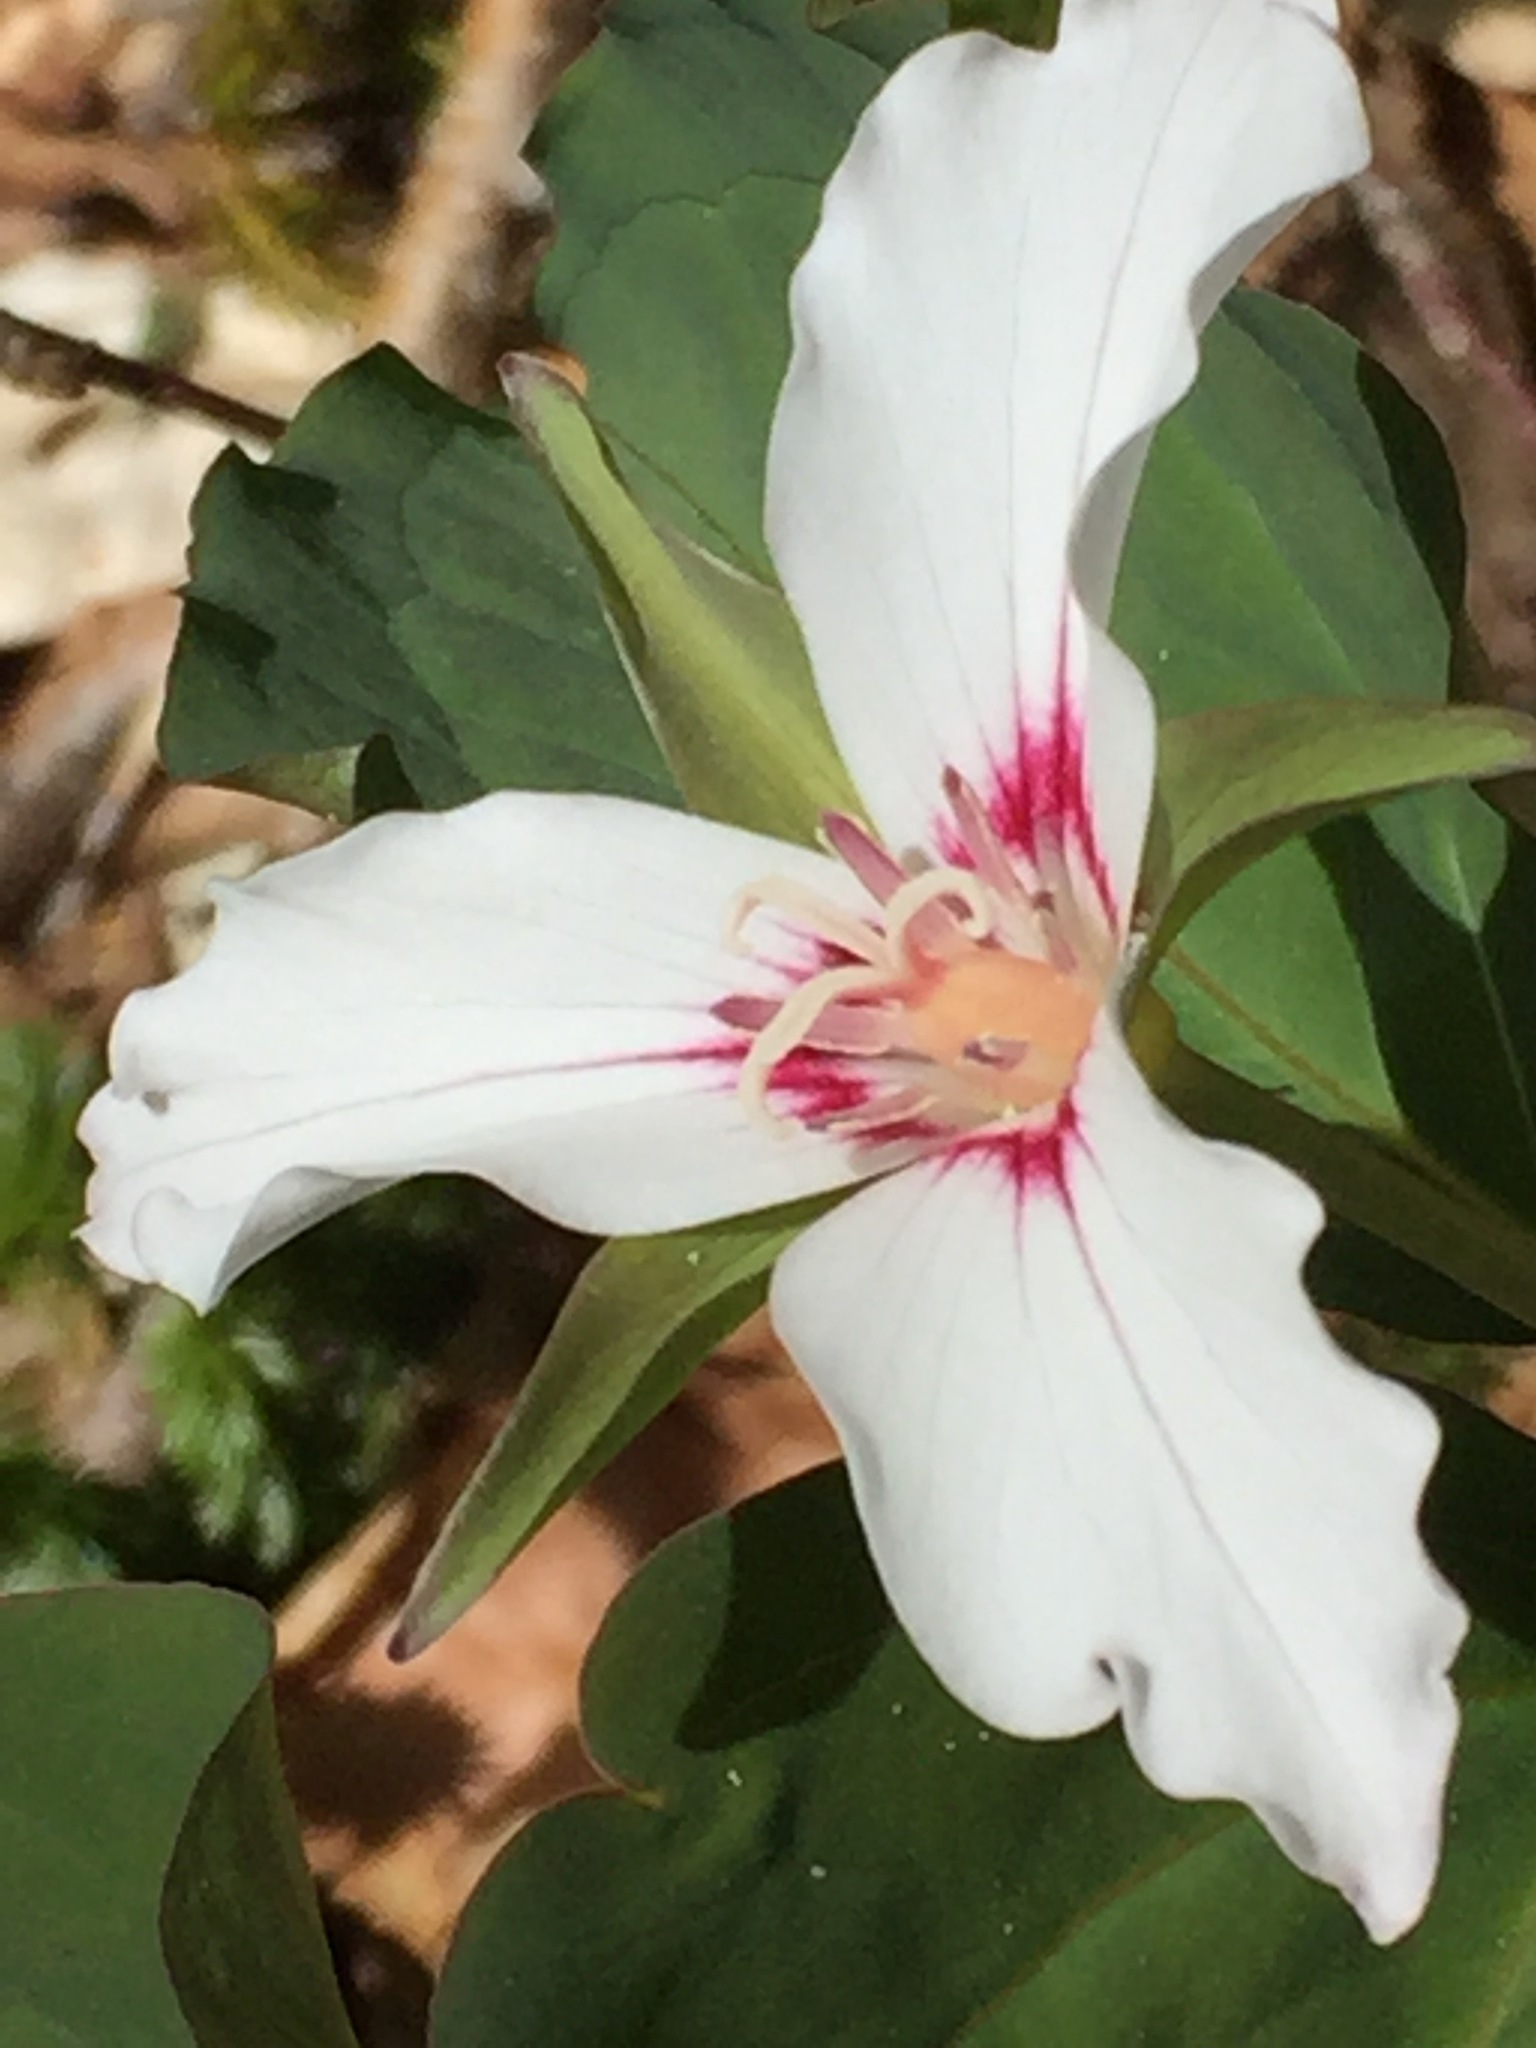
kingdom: Plantae
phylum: Tracheophyta
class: Liliopsida
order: Liliales
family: Melanthiaceae
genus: Trillium
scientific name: Trillium undulatum
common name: Paint trillium
